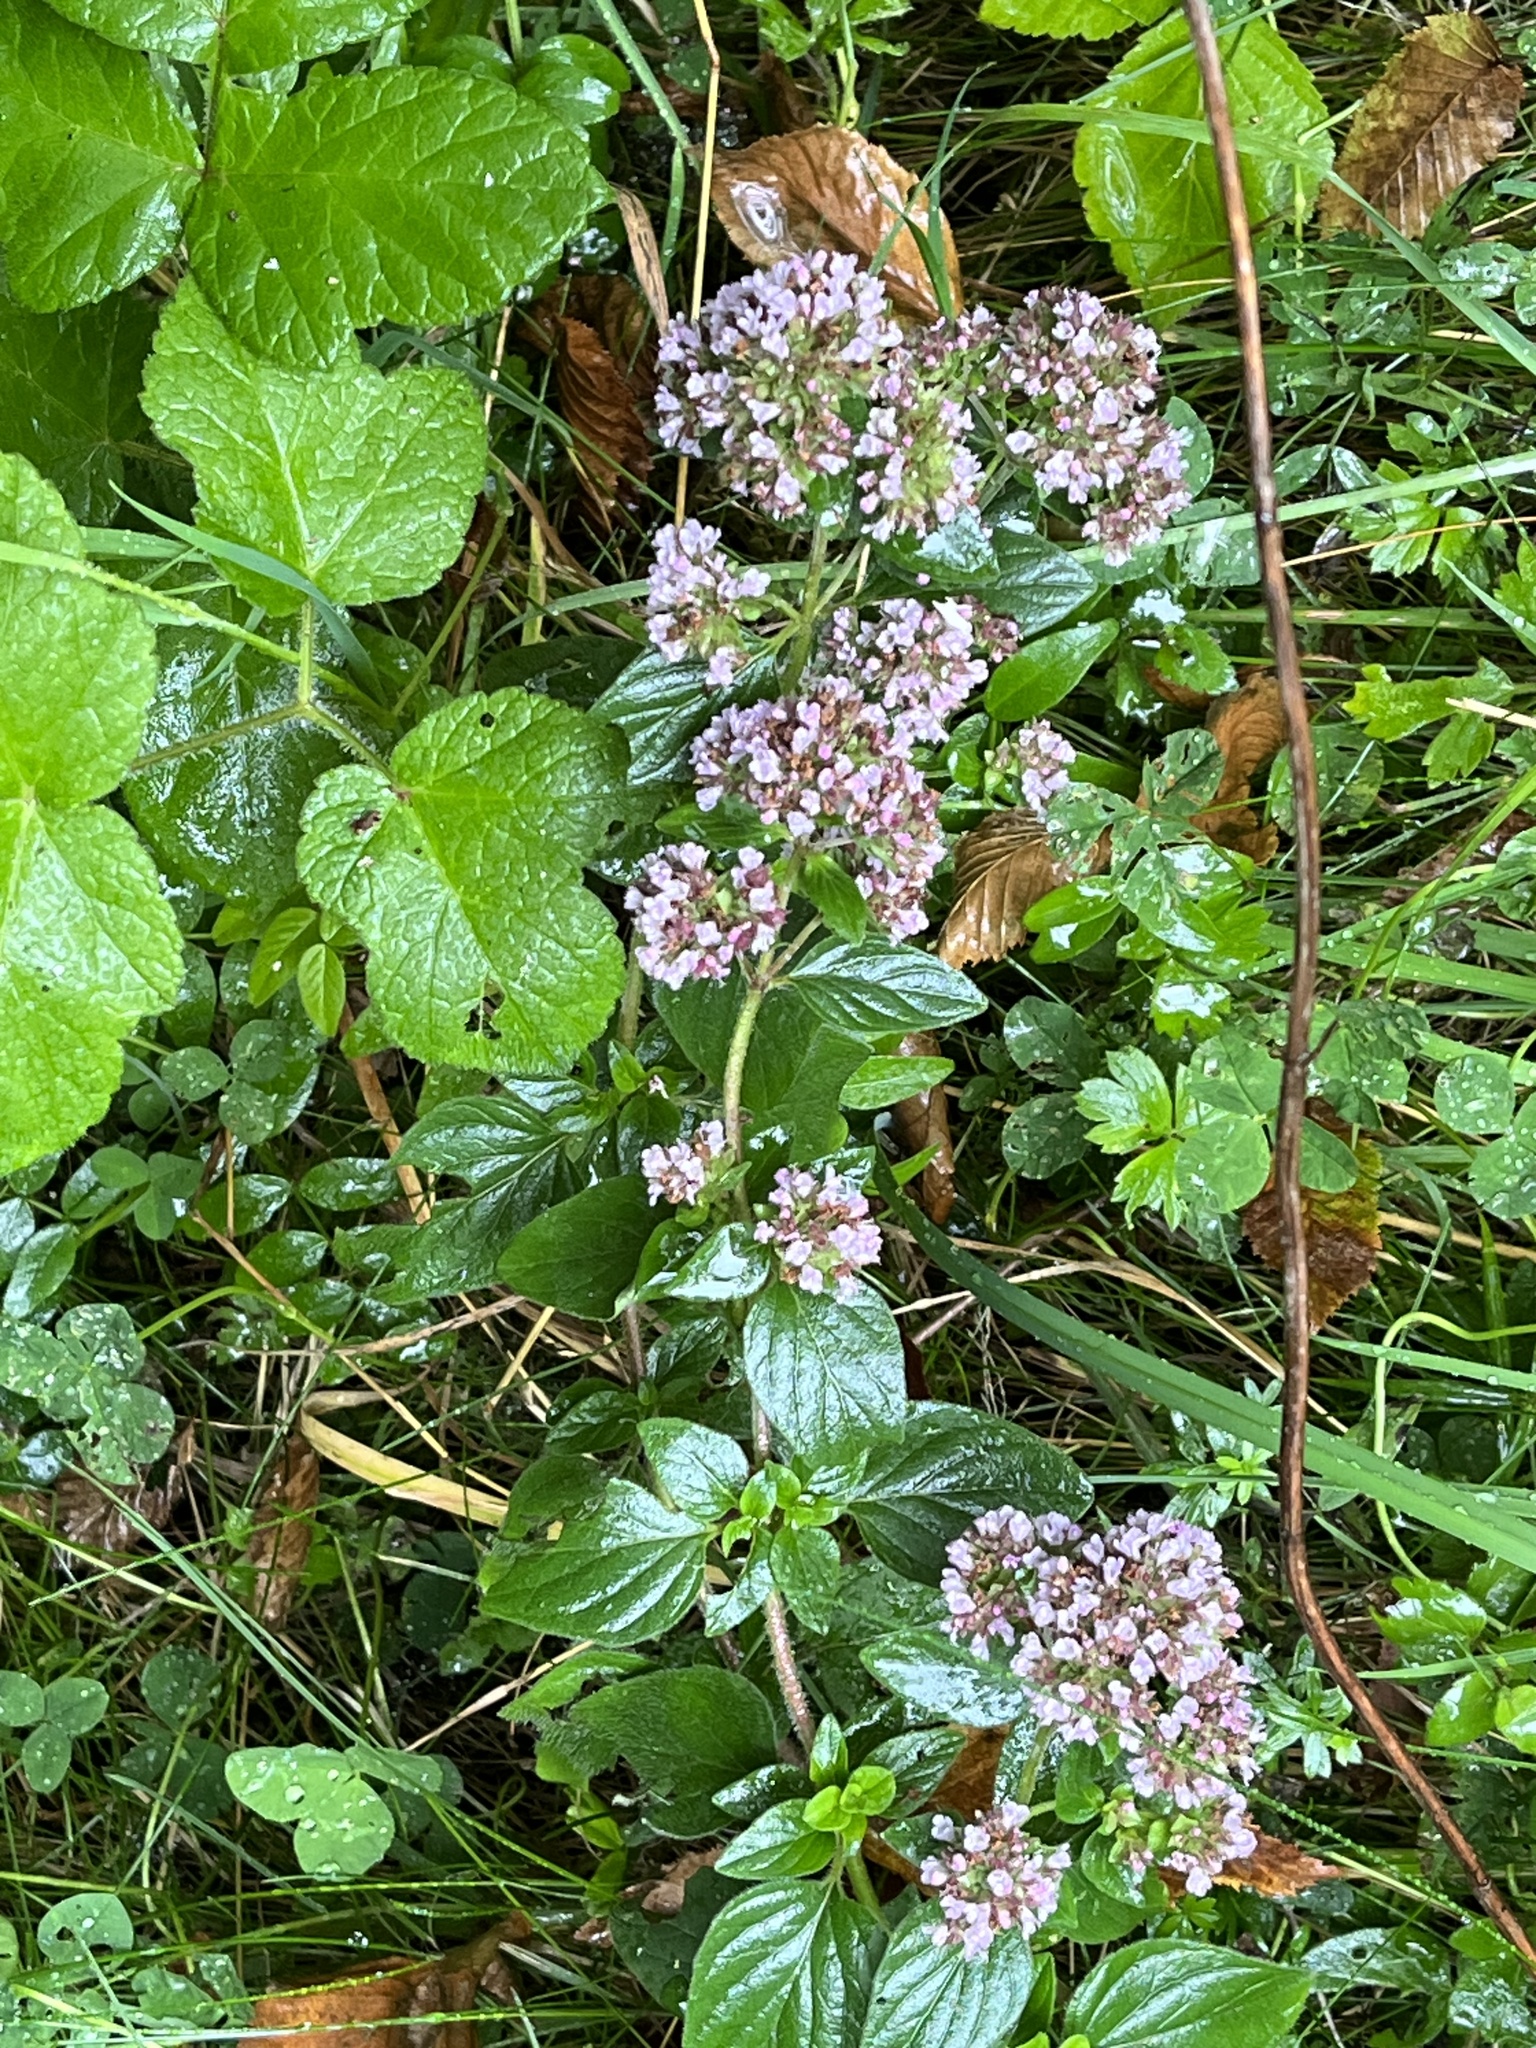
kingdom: Plantae
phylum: Tracheophyta
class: Magnoliopsida
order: Lamiales
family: Lamiaceae
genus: Origanum
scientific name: Origanum vulgare
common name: Wild marjoram
